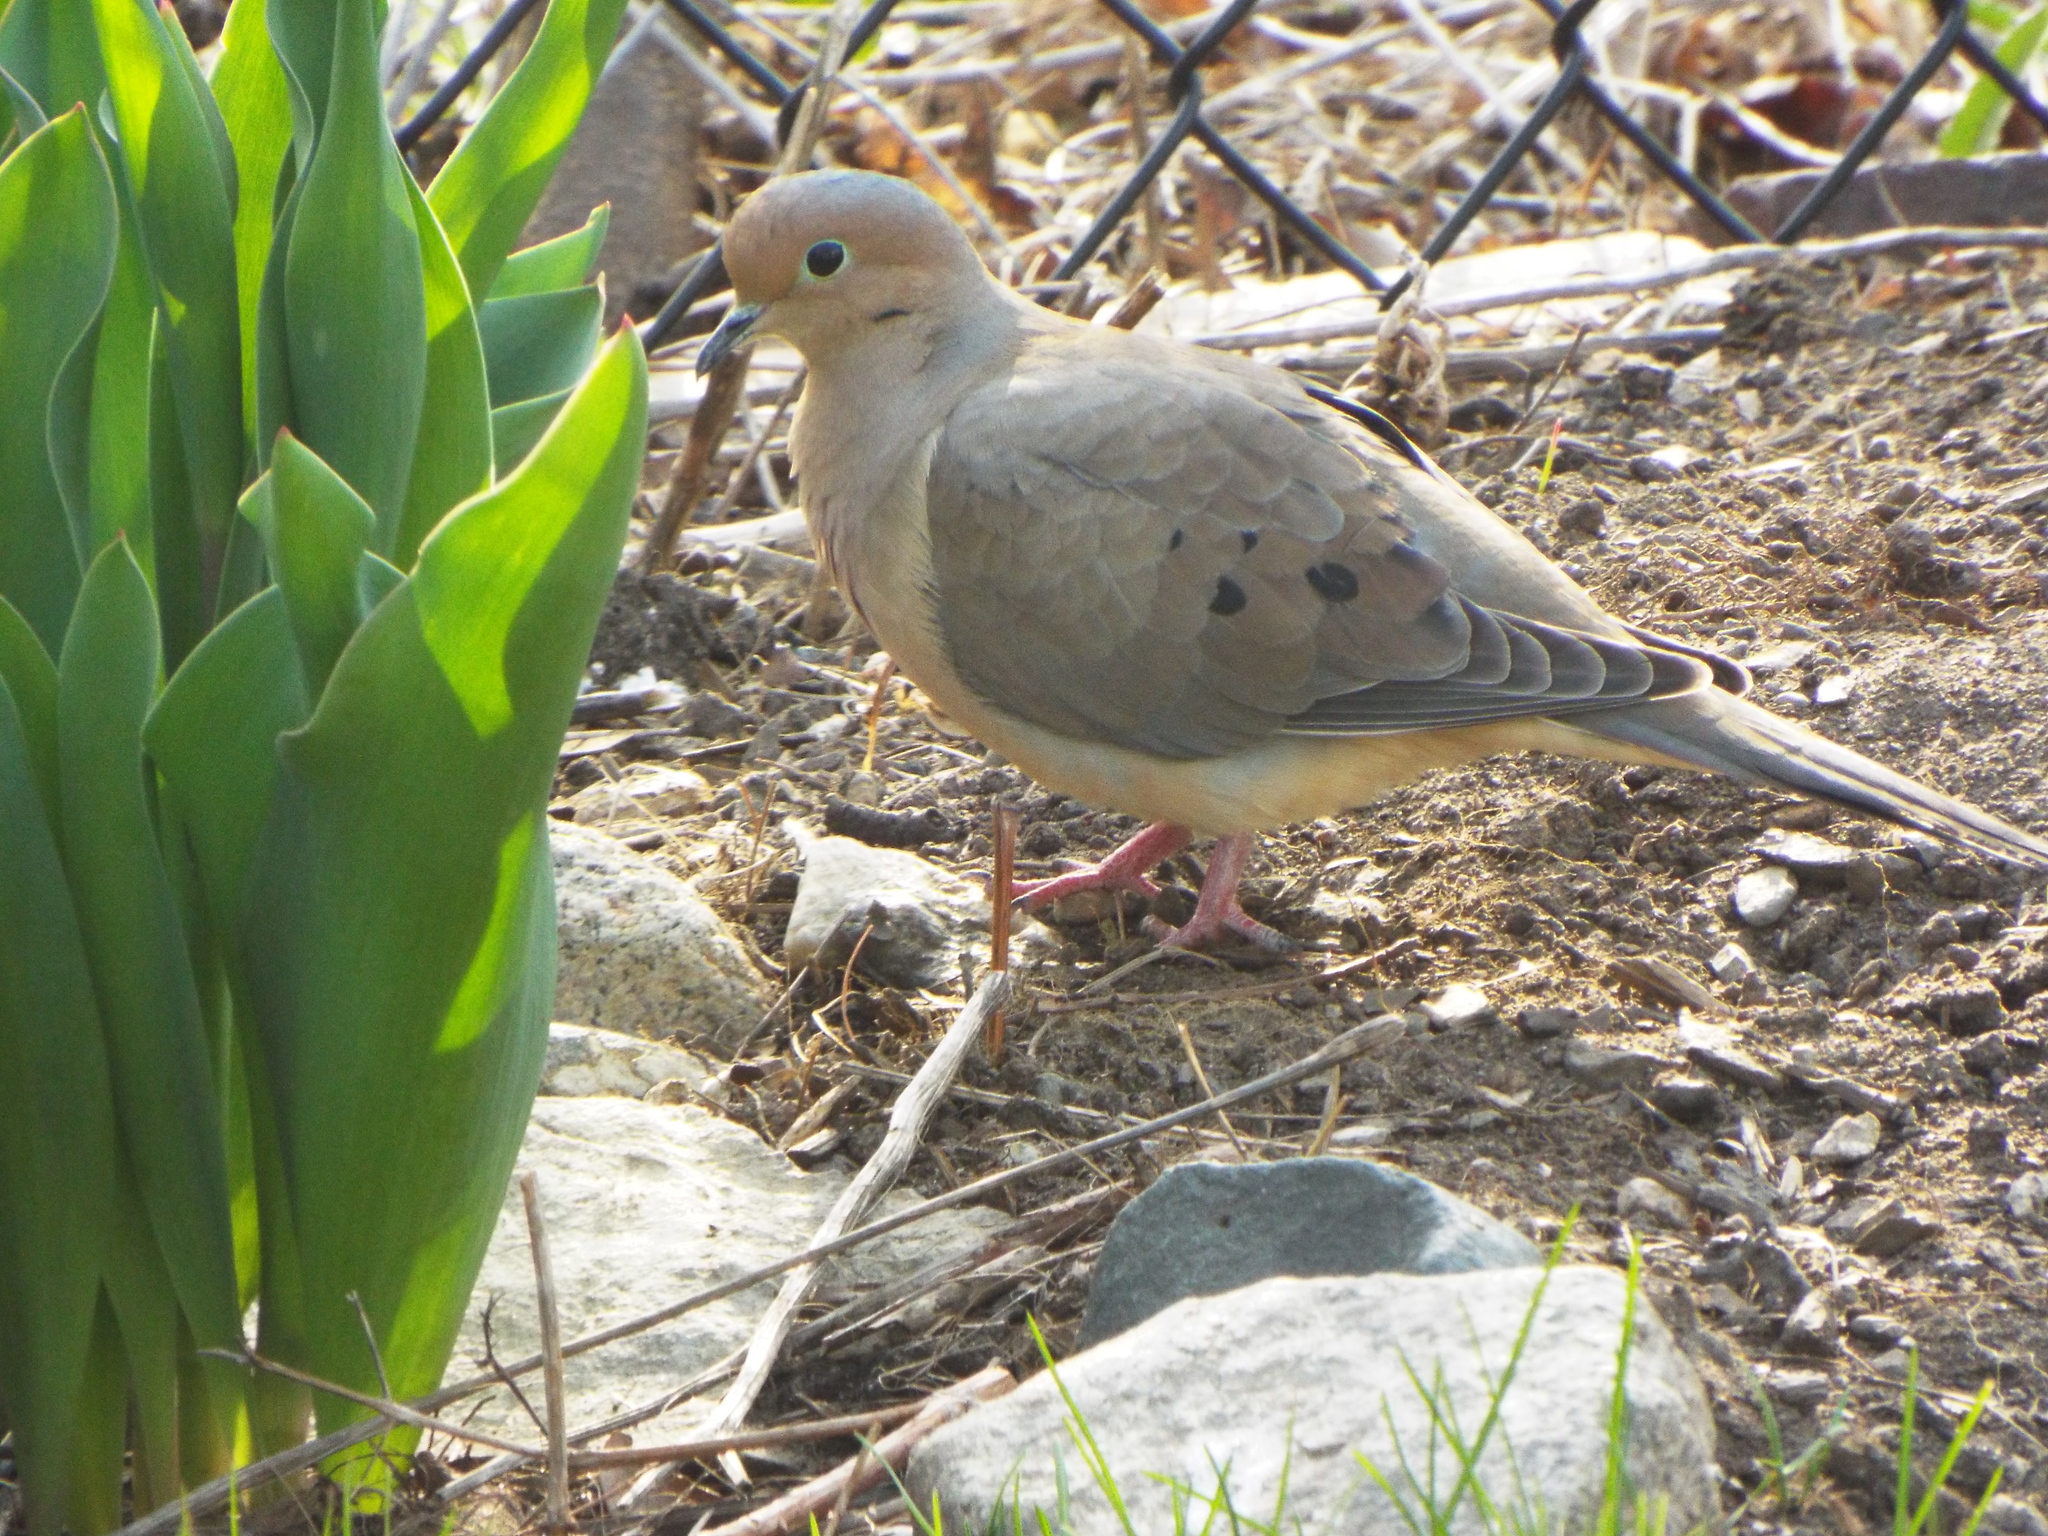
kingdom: Animalia
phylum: Chordata
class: Aves
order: Columbiformes
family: Columbidae
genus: Zenaida
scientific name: Zenaida macroura
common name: Mourning dove
